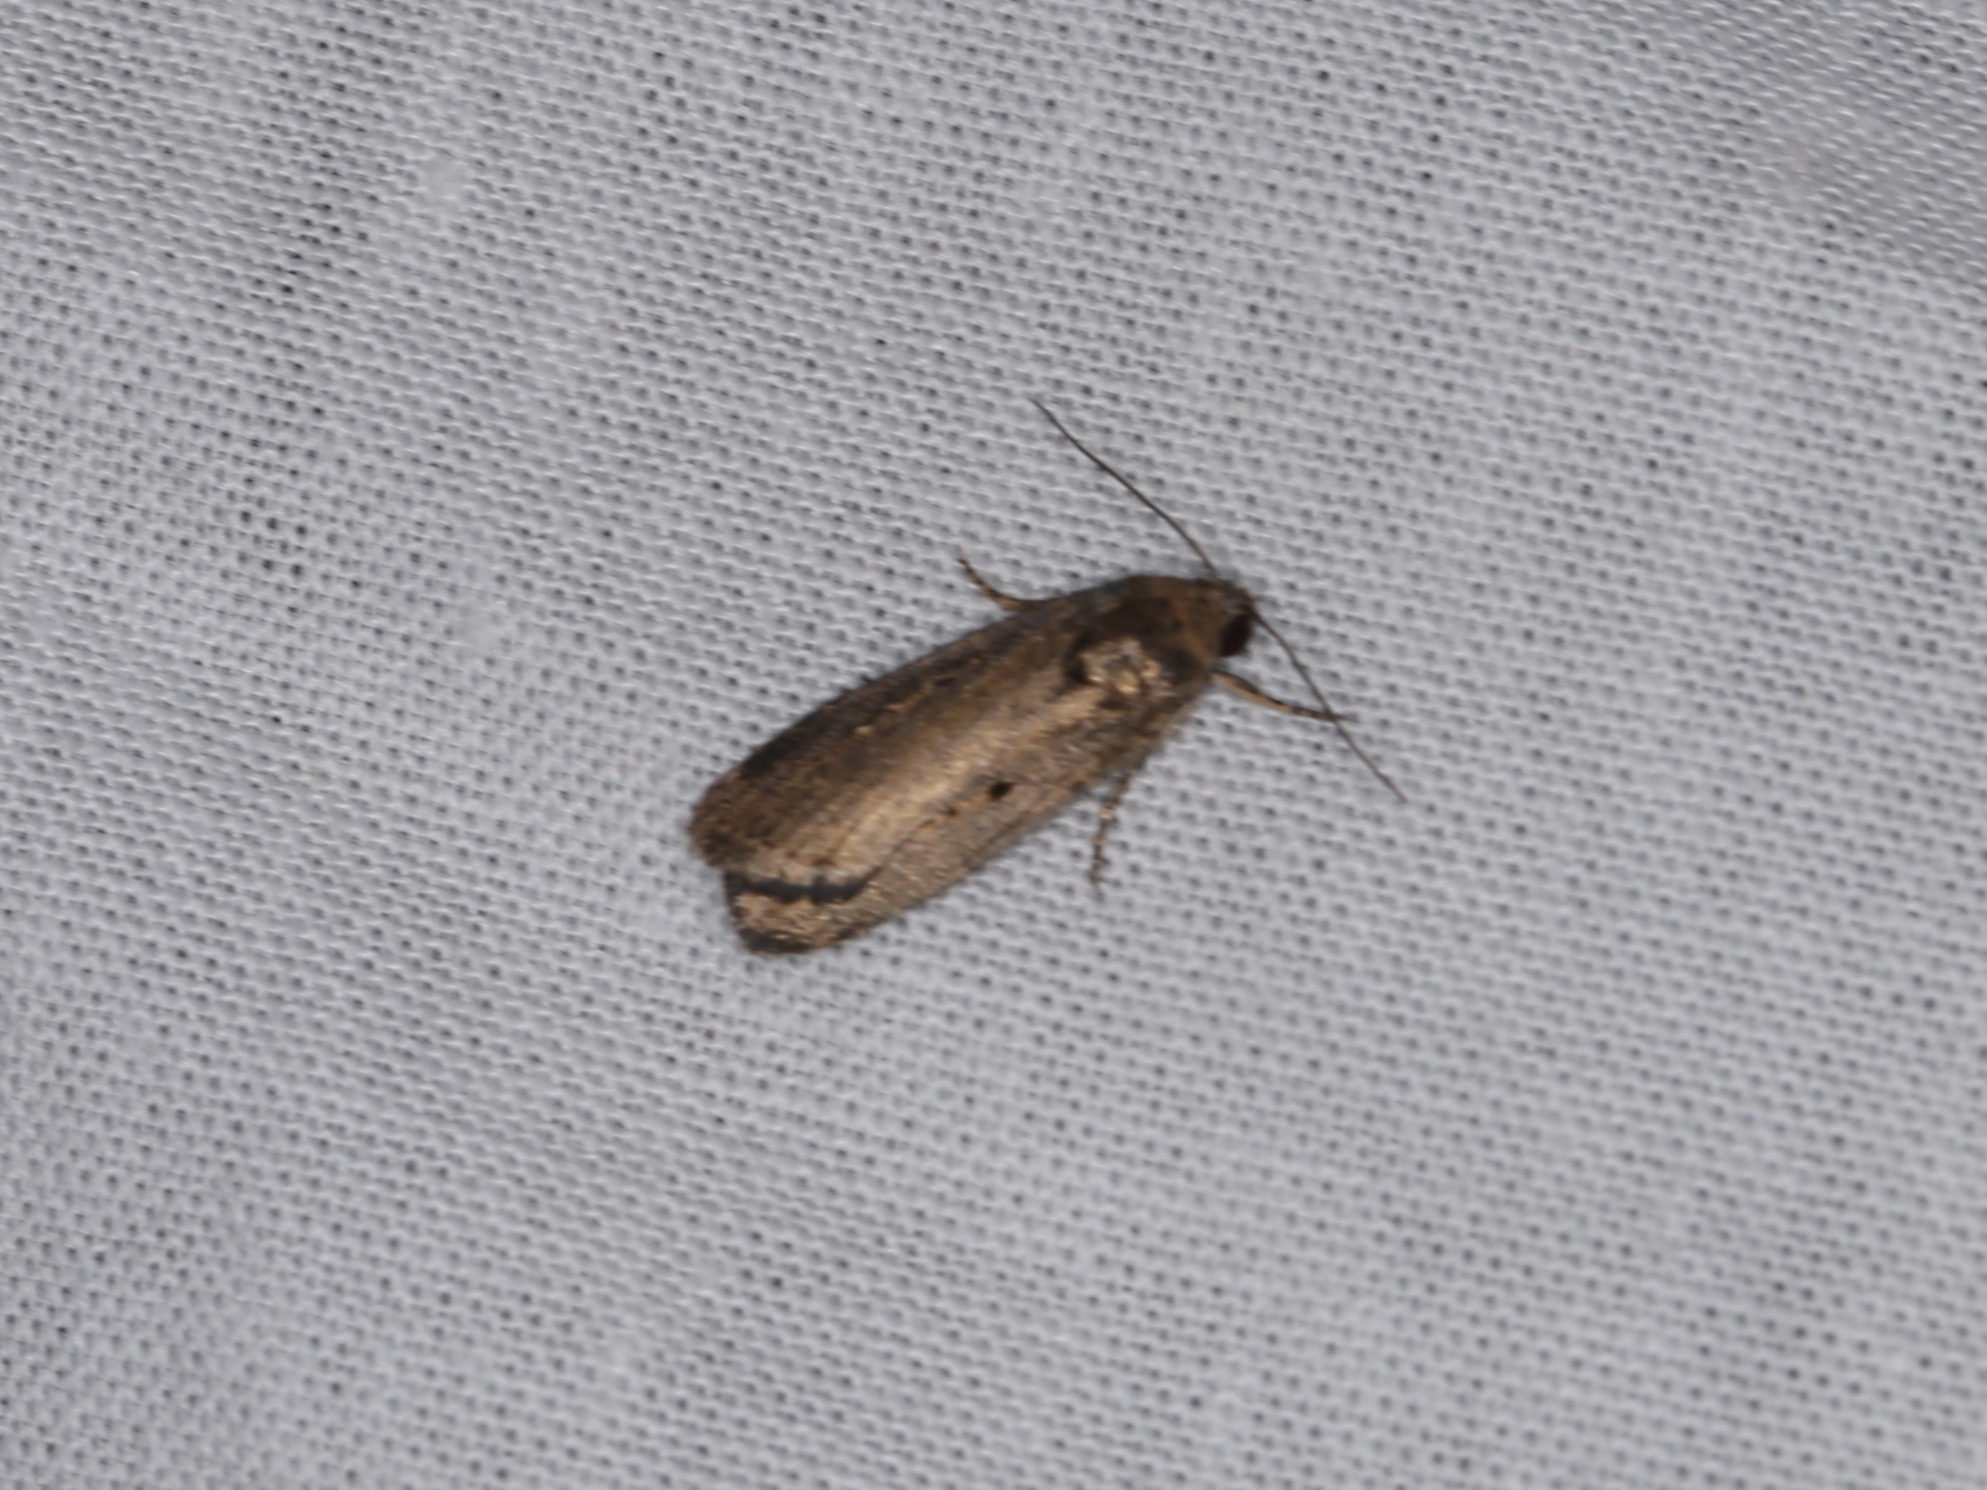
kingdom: Animalia
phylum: Arthropoda
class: Insecta
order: Lepidoptera
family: Noctuidae
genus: Athetis
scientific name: Athetis tenuis
